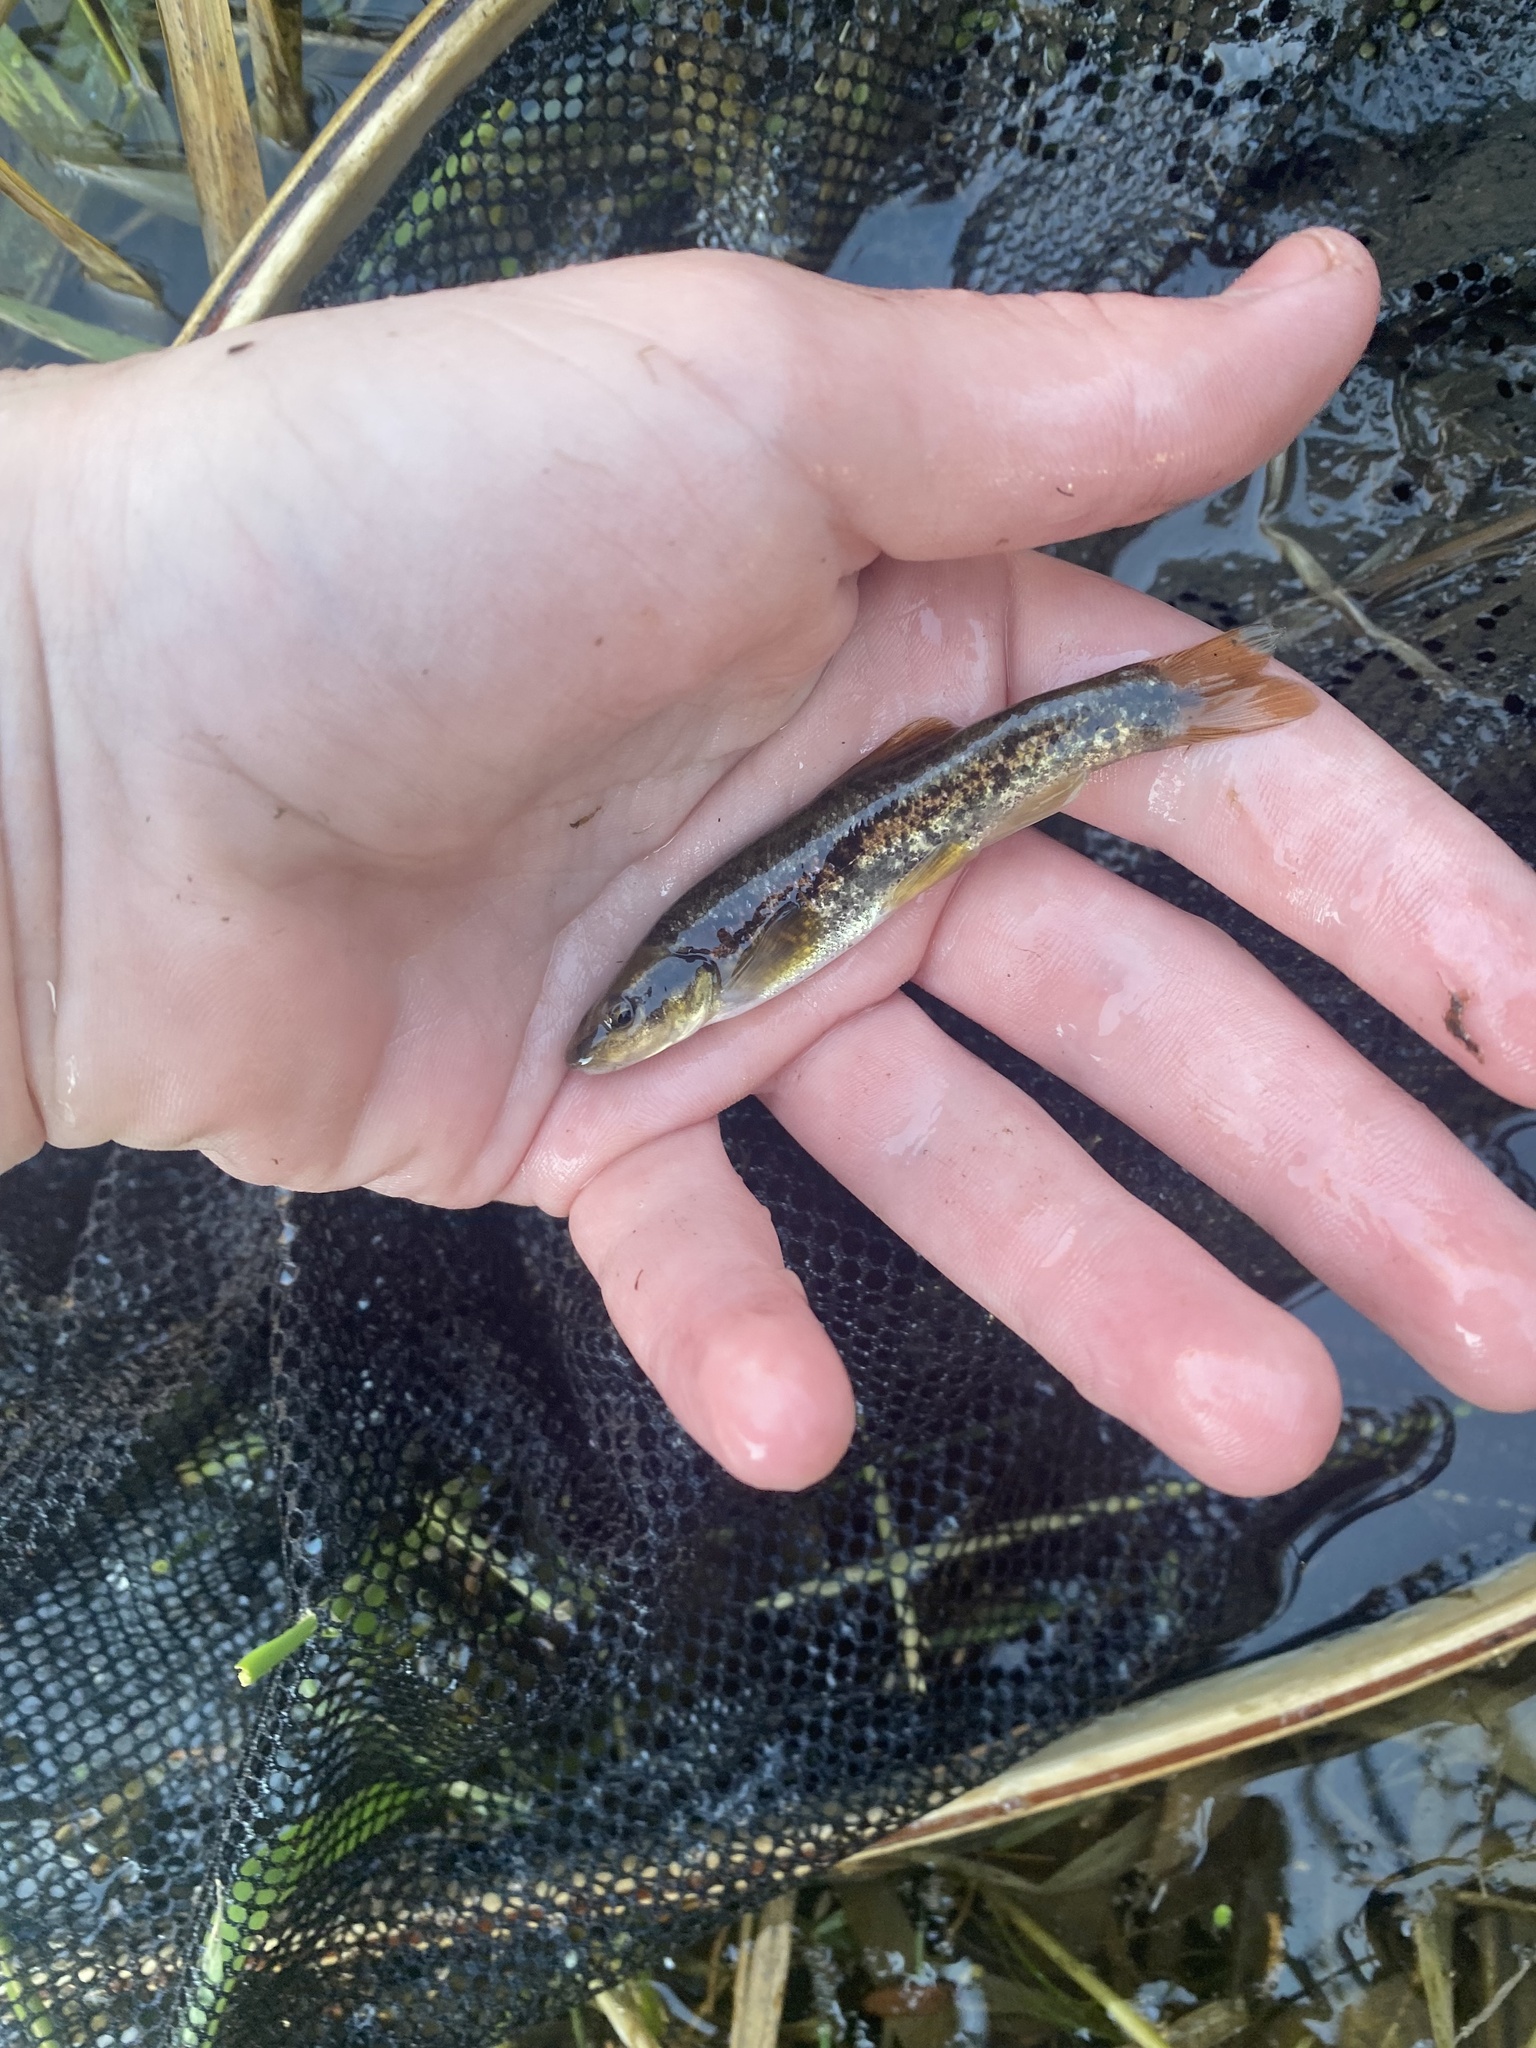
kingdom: Animalia
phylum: Chordata
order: Cypriniformes
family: Cyprinidae
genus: Rhinichthys
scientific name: Rhinichthys obtusus
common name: Western blacknose dace
